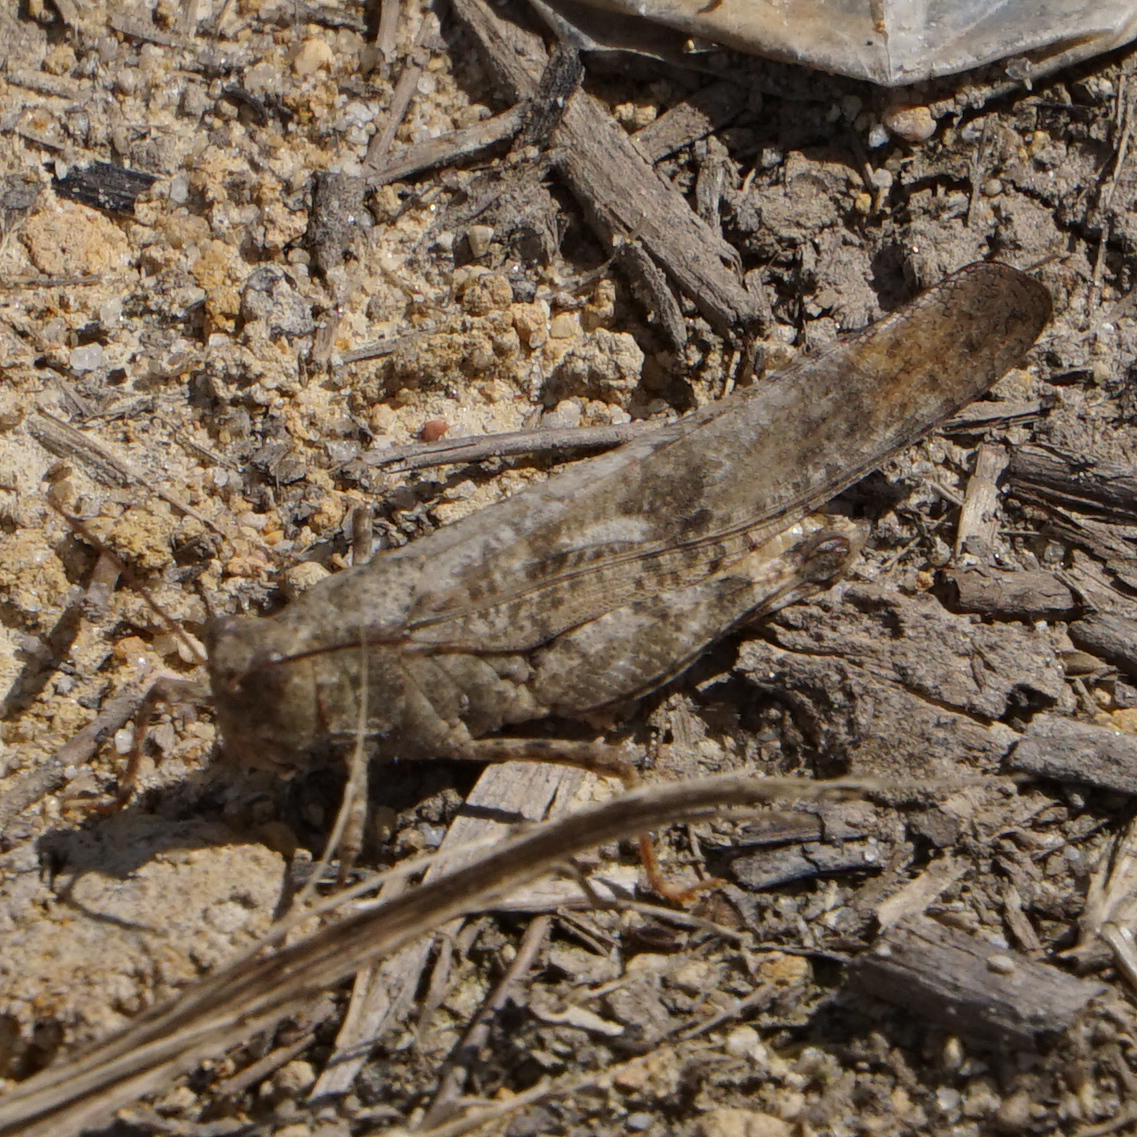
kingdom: Animalia
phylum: Arthropoda
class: Insecta
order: Orthoptera
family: Acrididae
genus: Dissosteira
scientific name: Dissosteira carolina
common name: Carolina grasshopper
